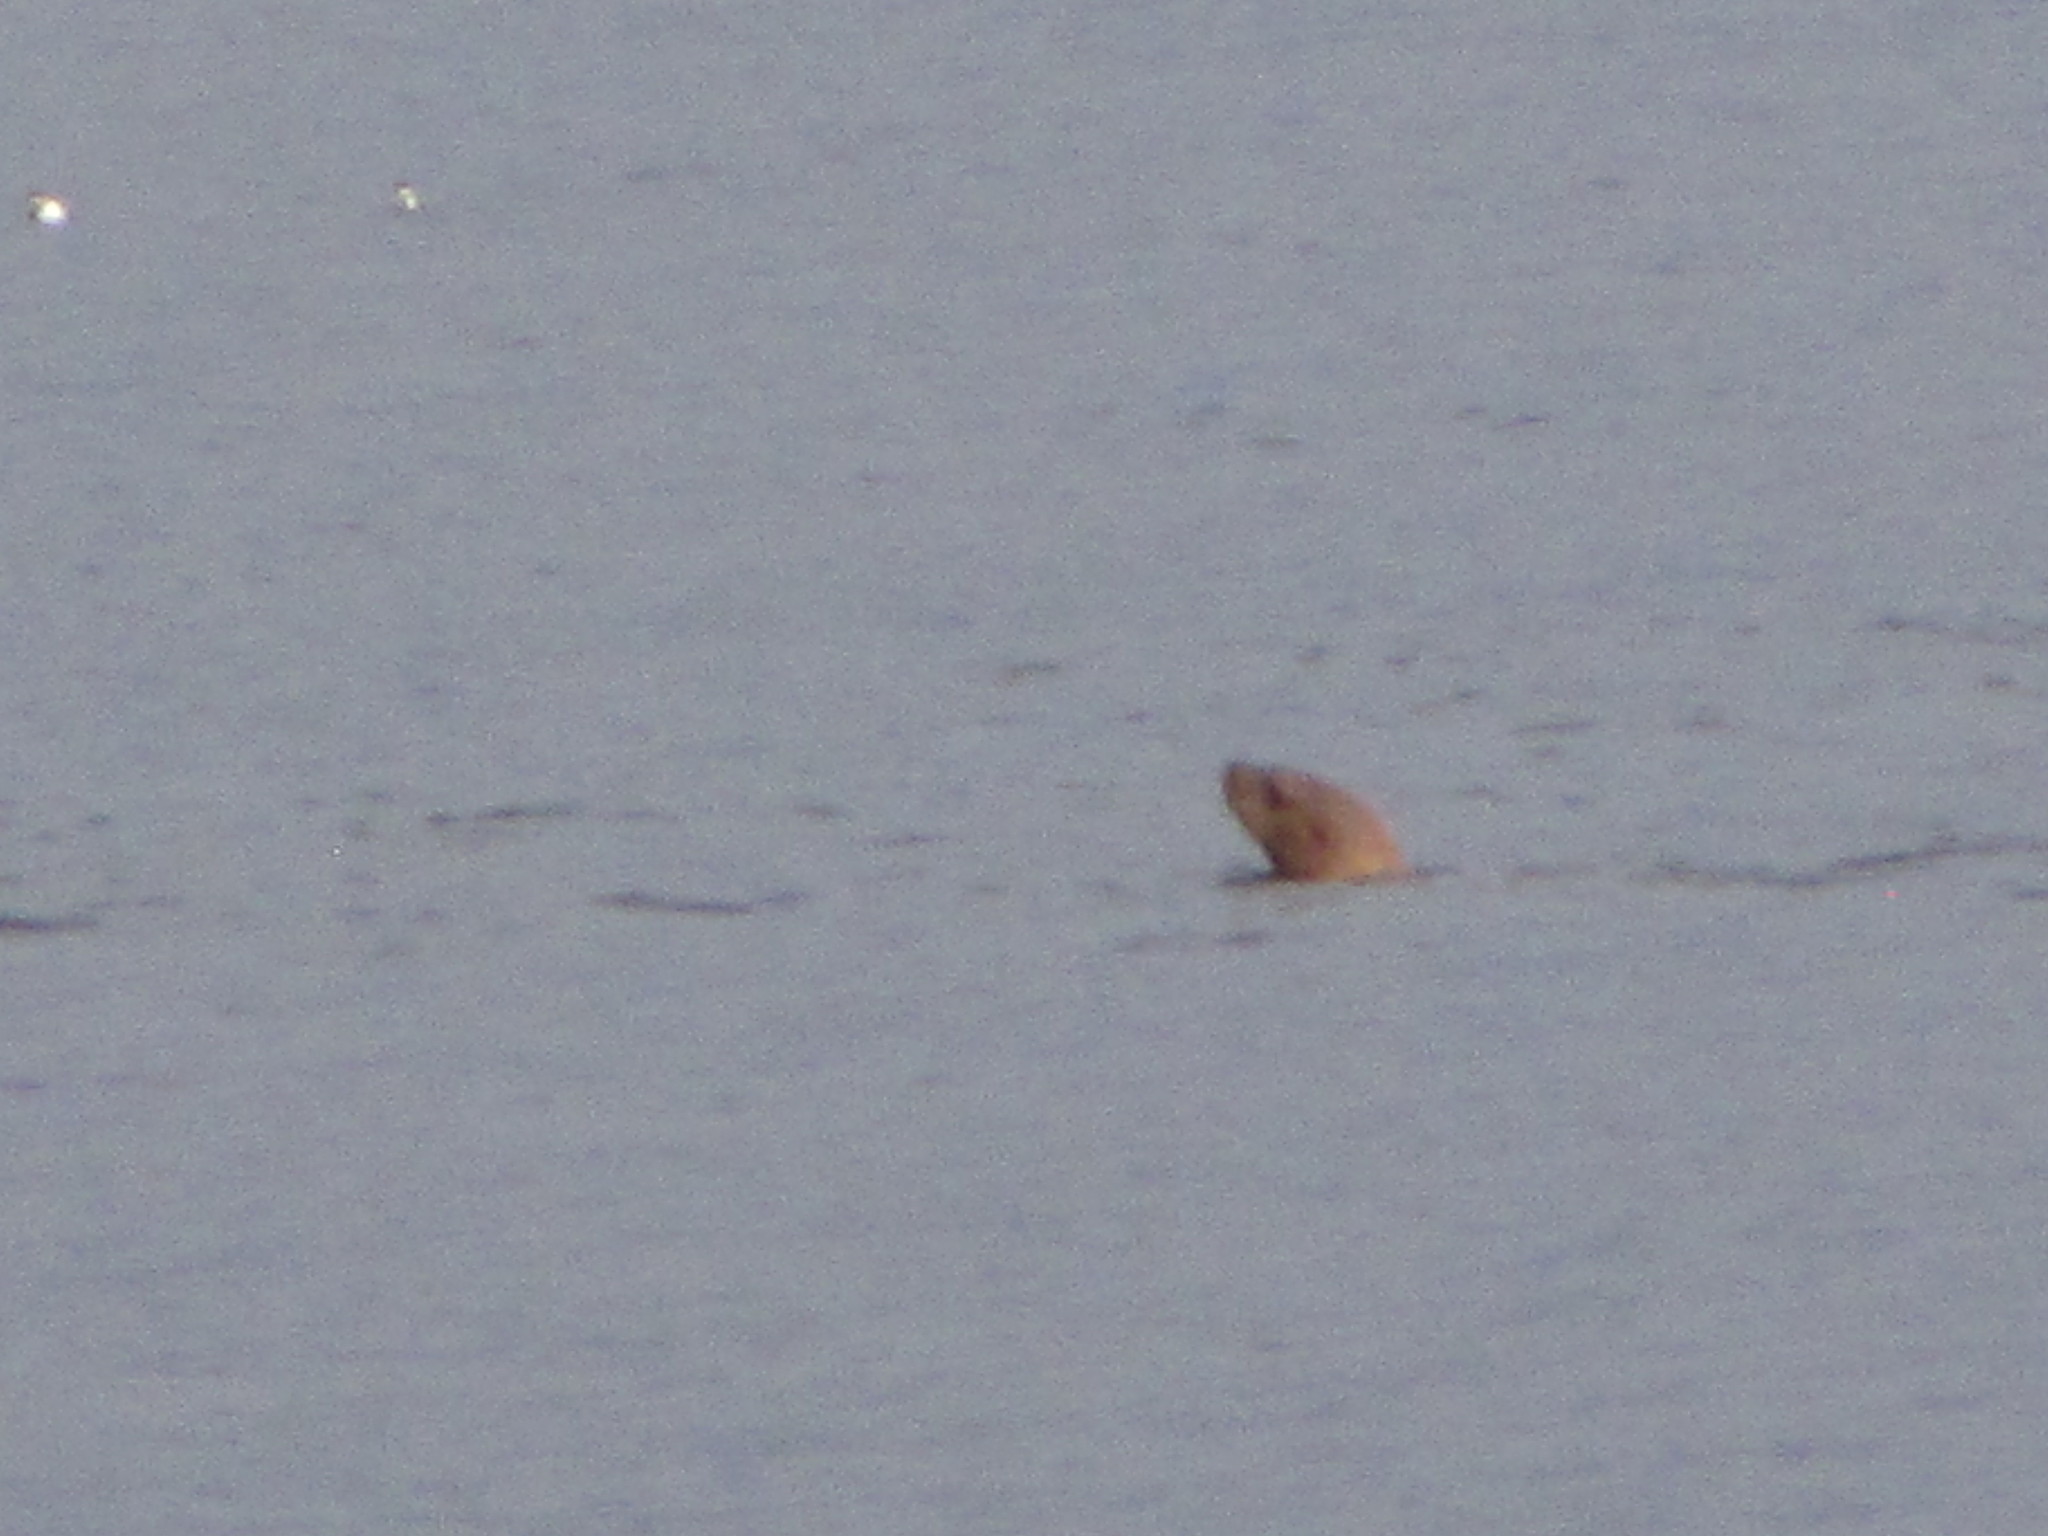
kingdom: Animalia
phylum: Chordata
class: Mammalia
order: Carnivora
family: Otariidae
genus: Eumetopias
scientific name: Eumetopias jubatus
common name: Steller sea lion
